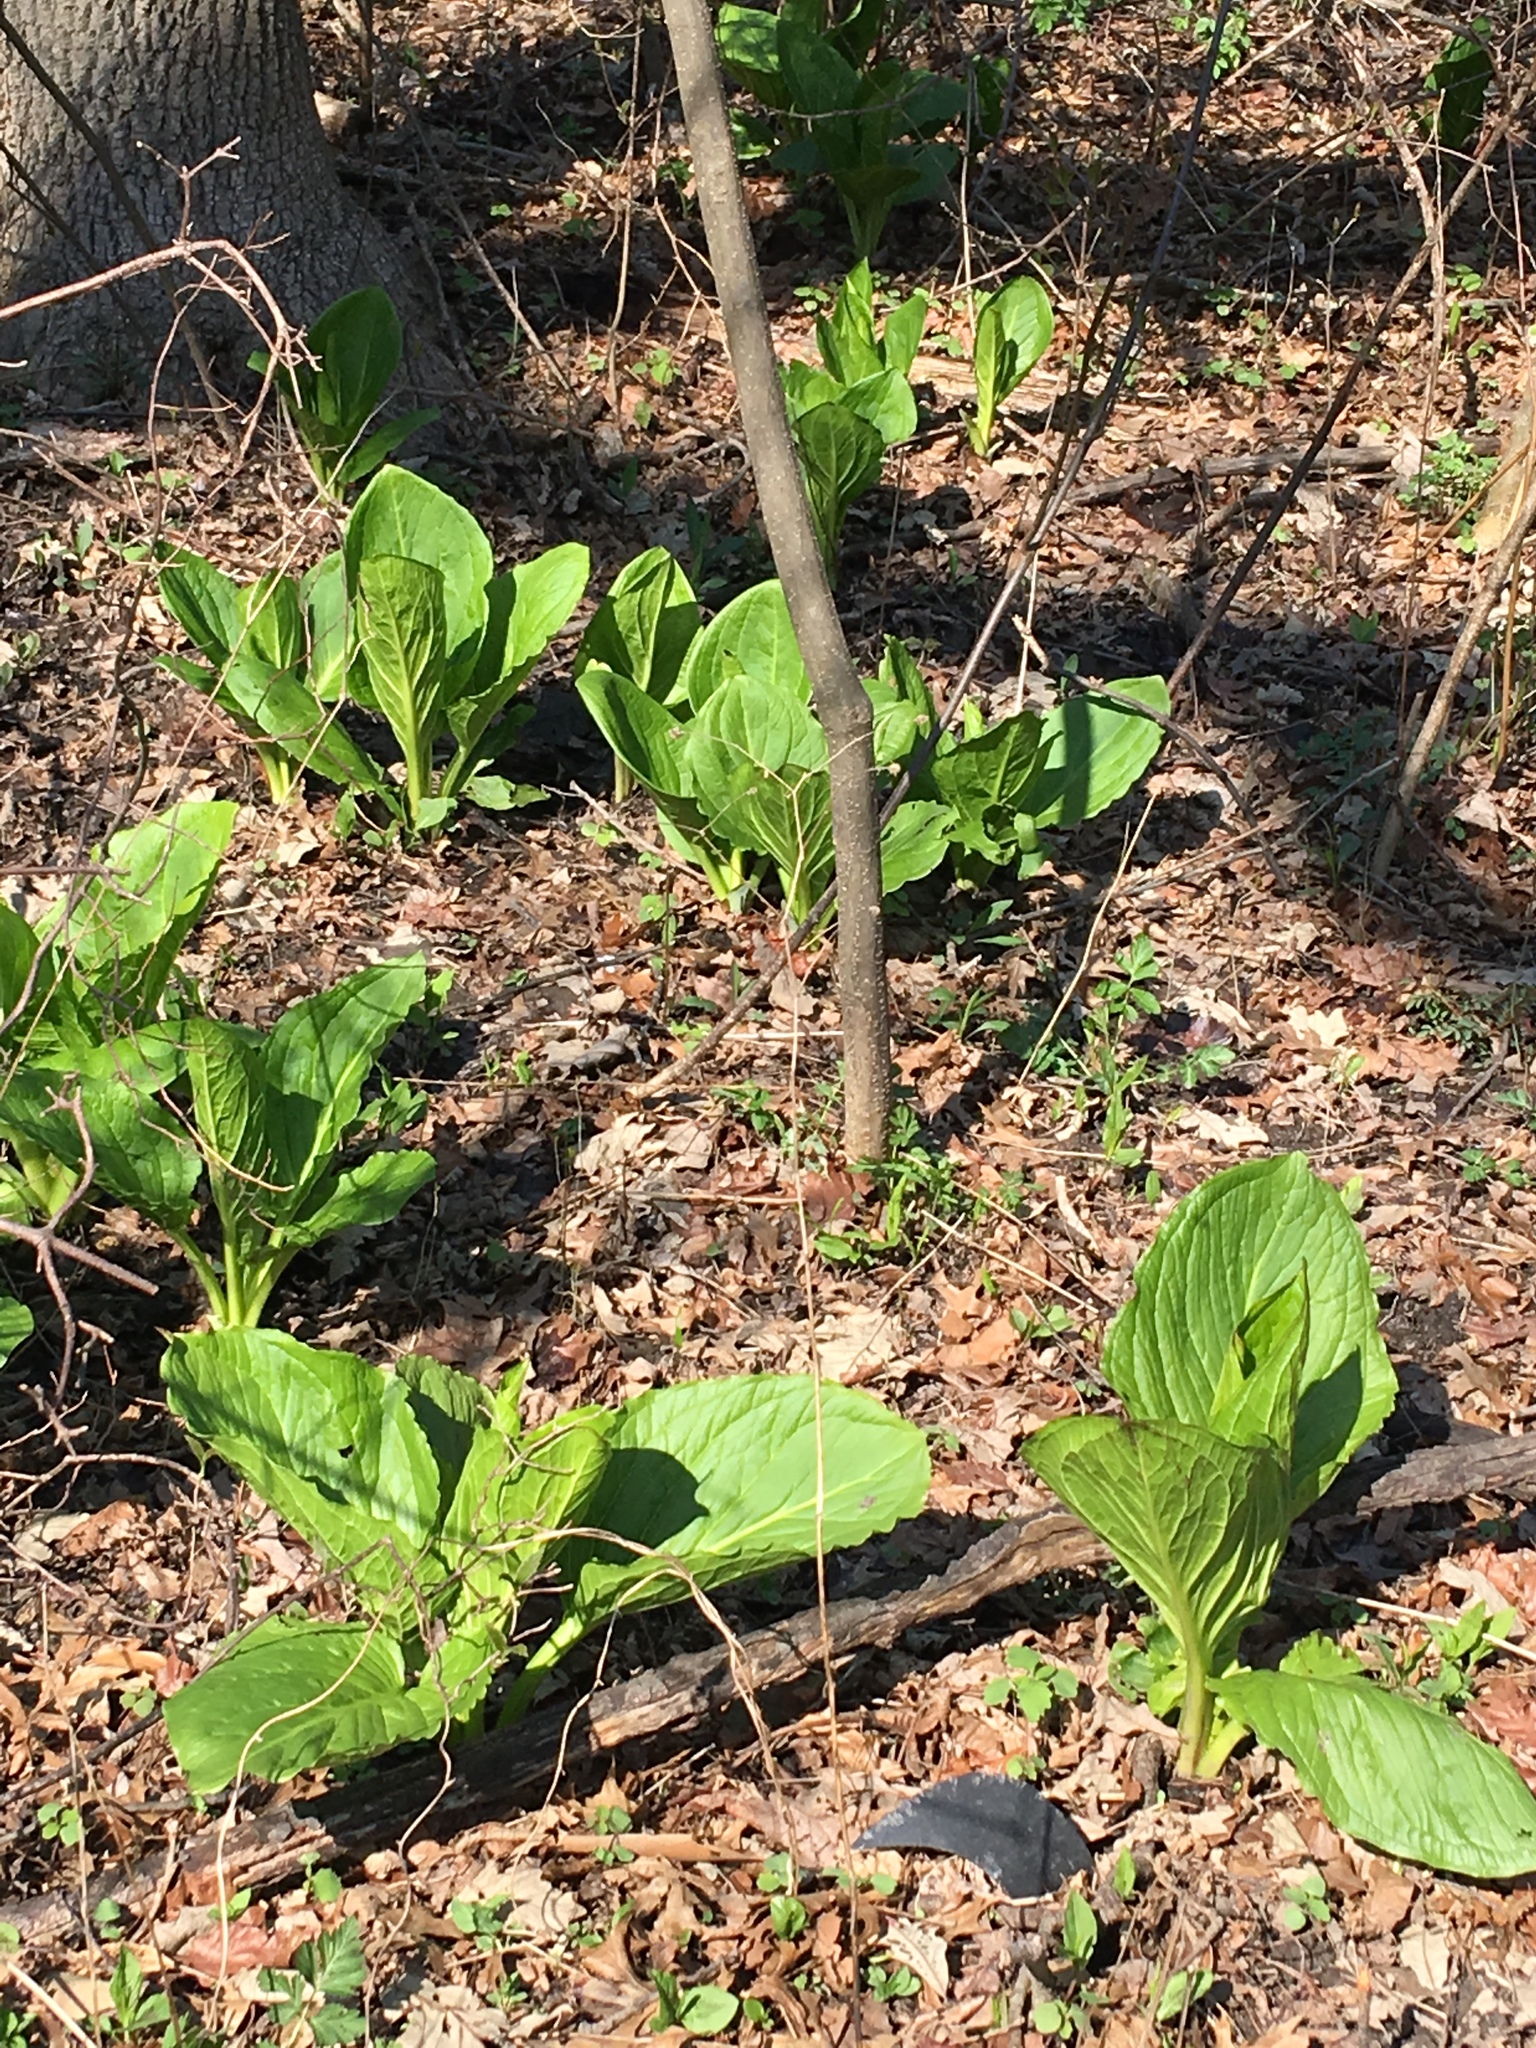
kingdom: Plantae
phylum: Tracheophyta
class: Liliopsida
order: Alismatales
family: Araceae
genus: Symplocarpus
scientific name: Symplocarpus foetidus
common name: Eastern skunk cabbage
